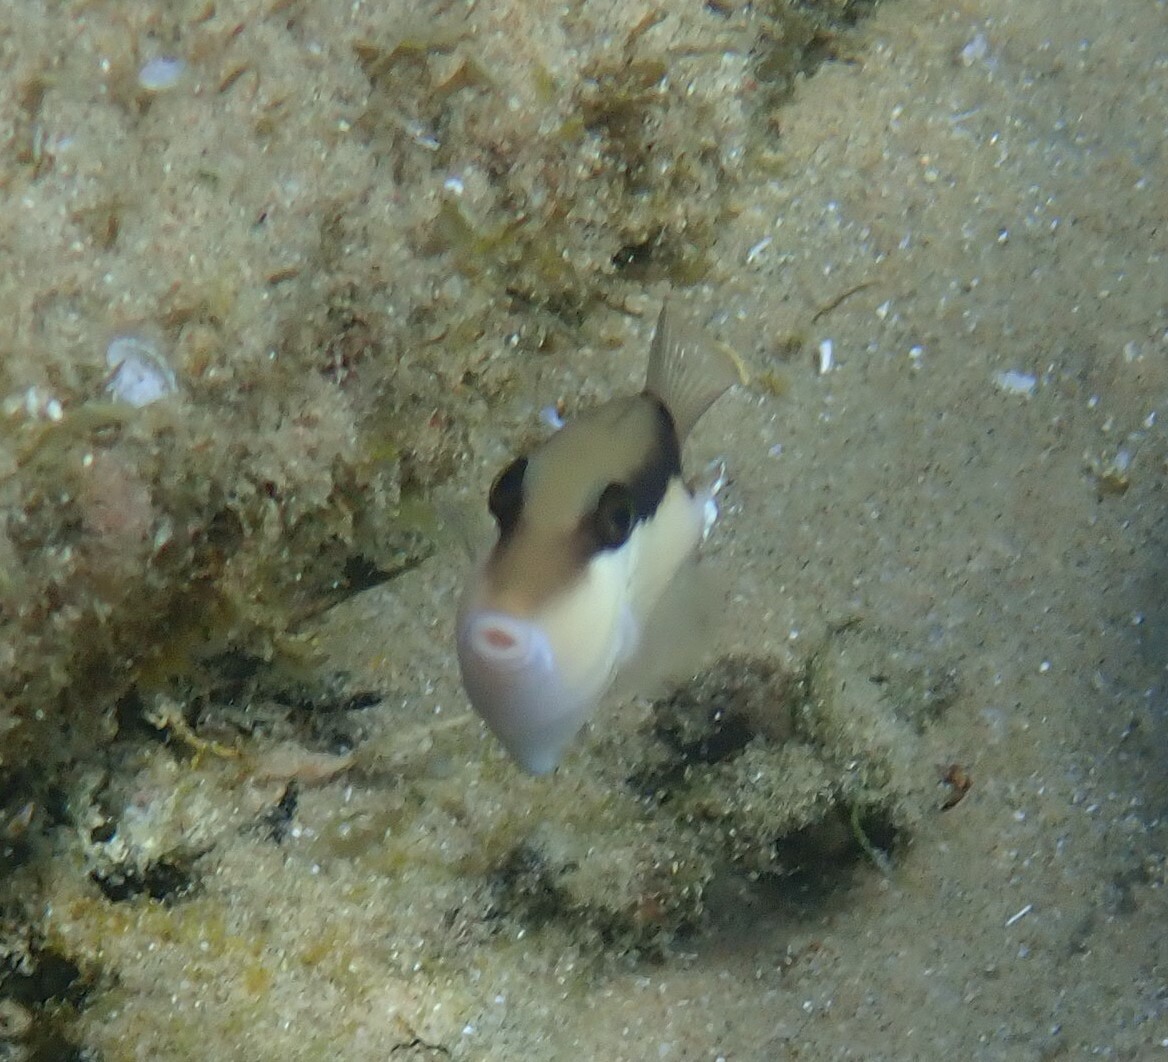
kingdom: Animalia
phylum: Chordata
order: Tetraodontiformes
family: Balistidae
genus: Sufflamen
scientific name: Sufflamen chrysopterum
